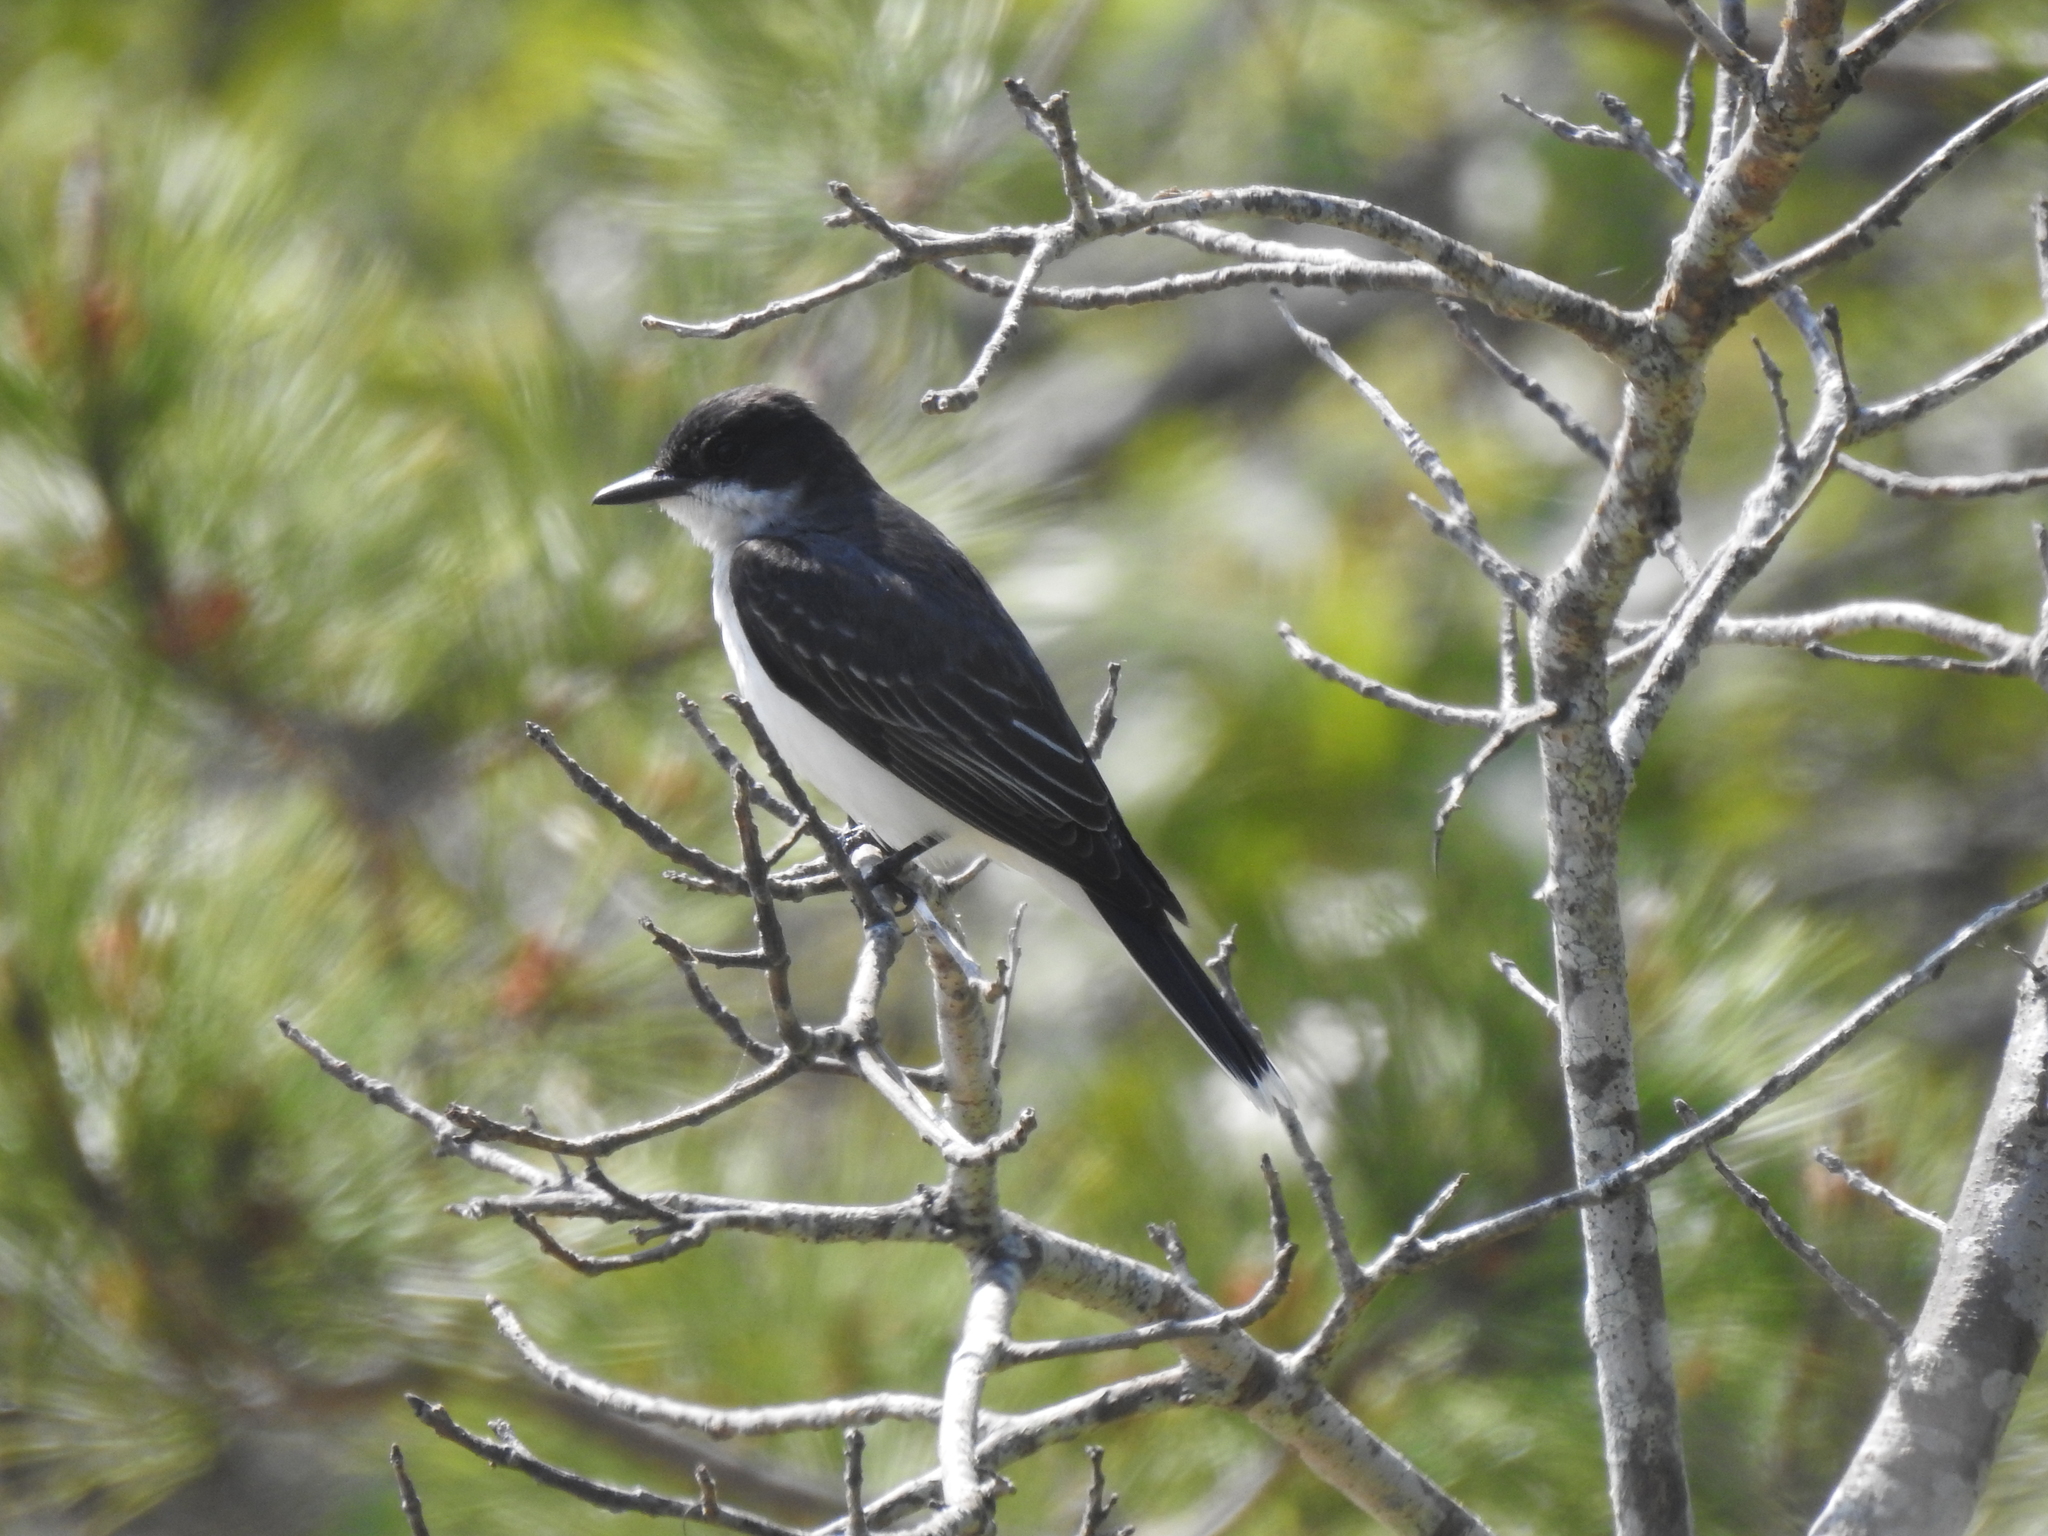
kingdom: Animalia
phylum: Chordata
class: Aves
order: Passeriformes
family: Tyrannidae
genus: Tyrannus
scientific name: Tyrannus tyrannus
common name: Eastern kingbird
